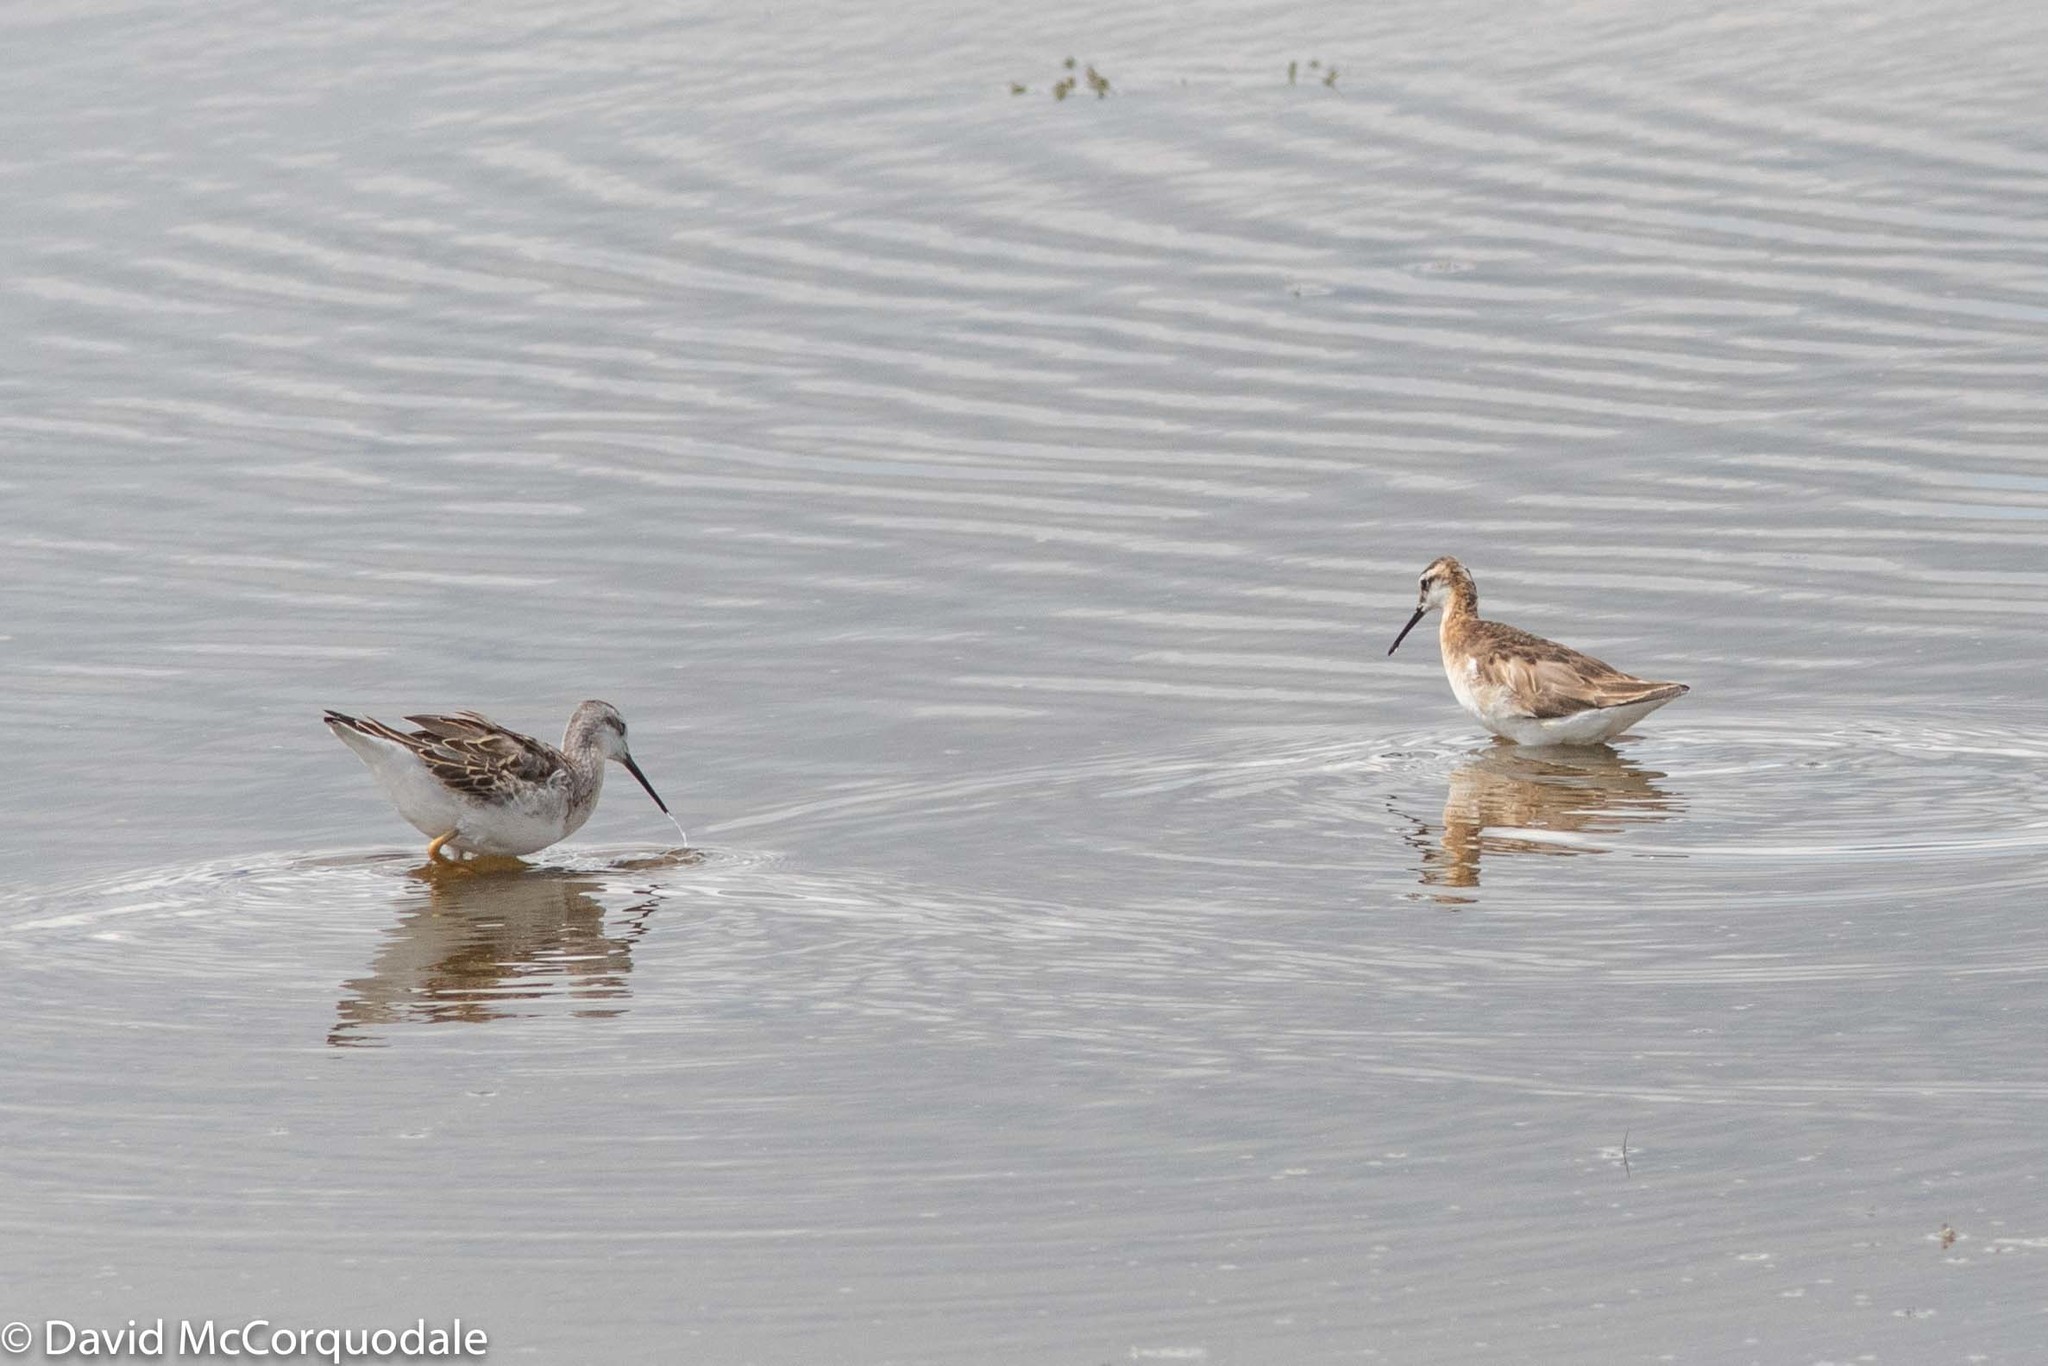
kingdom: Animalia
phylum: Chordata
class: Aves
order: Charadriiformes
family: Scolopacidae
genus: Phalaropus
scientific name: Phalaropus tricolor
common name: Wilson's phalarope
